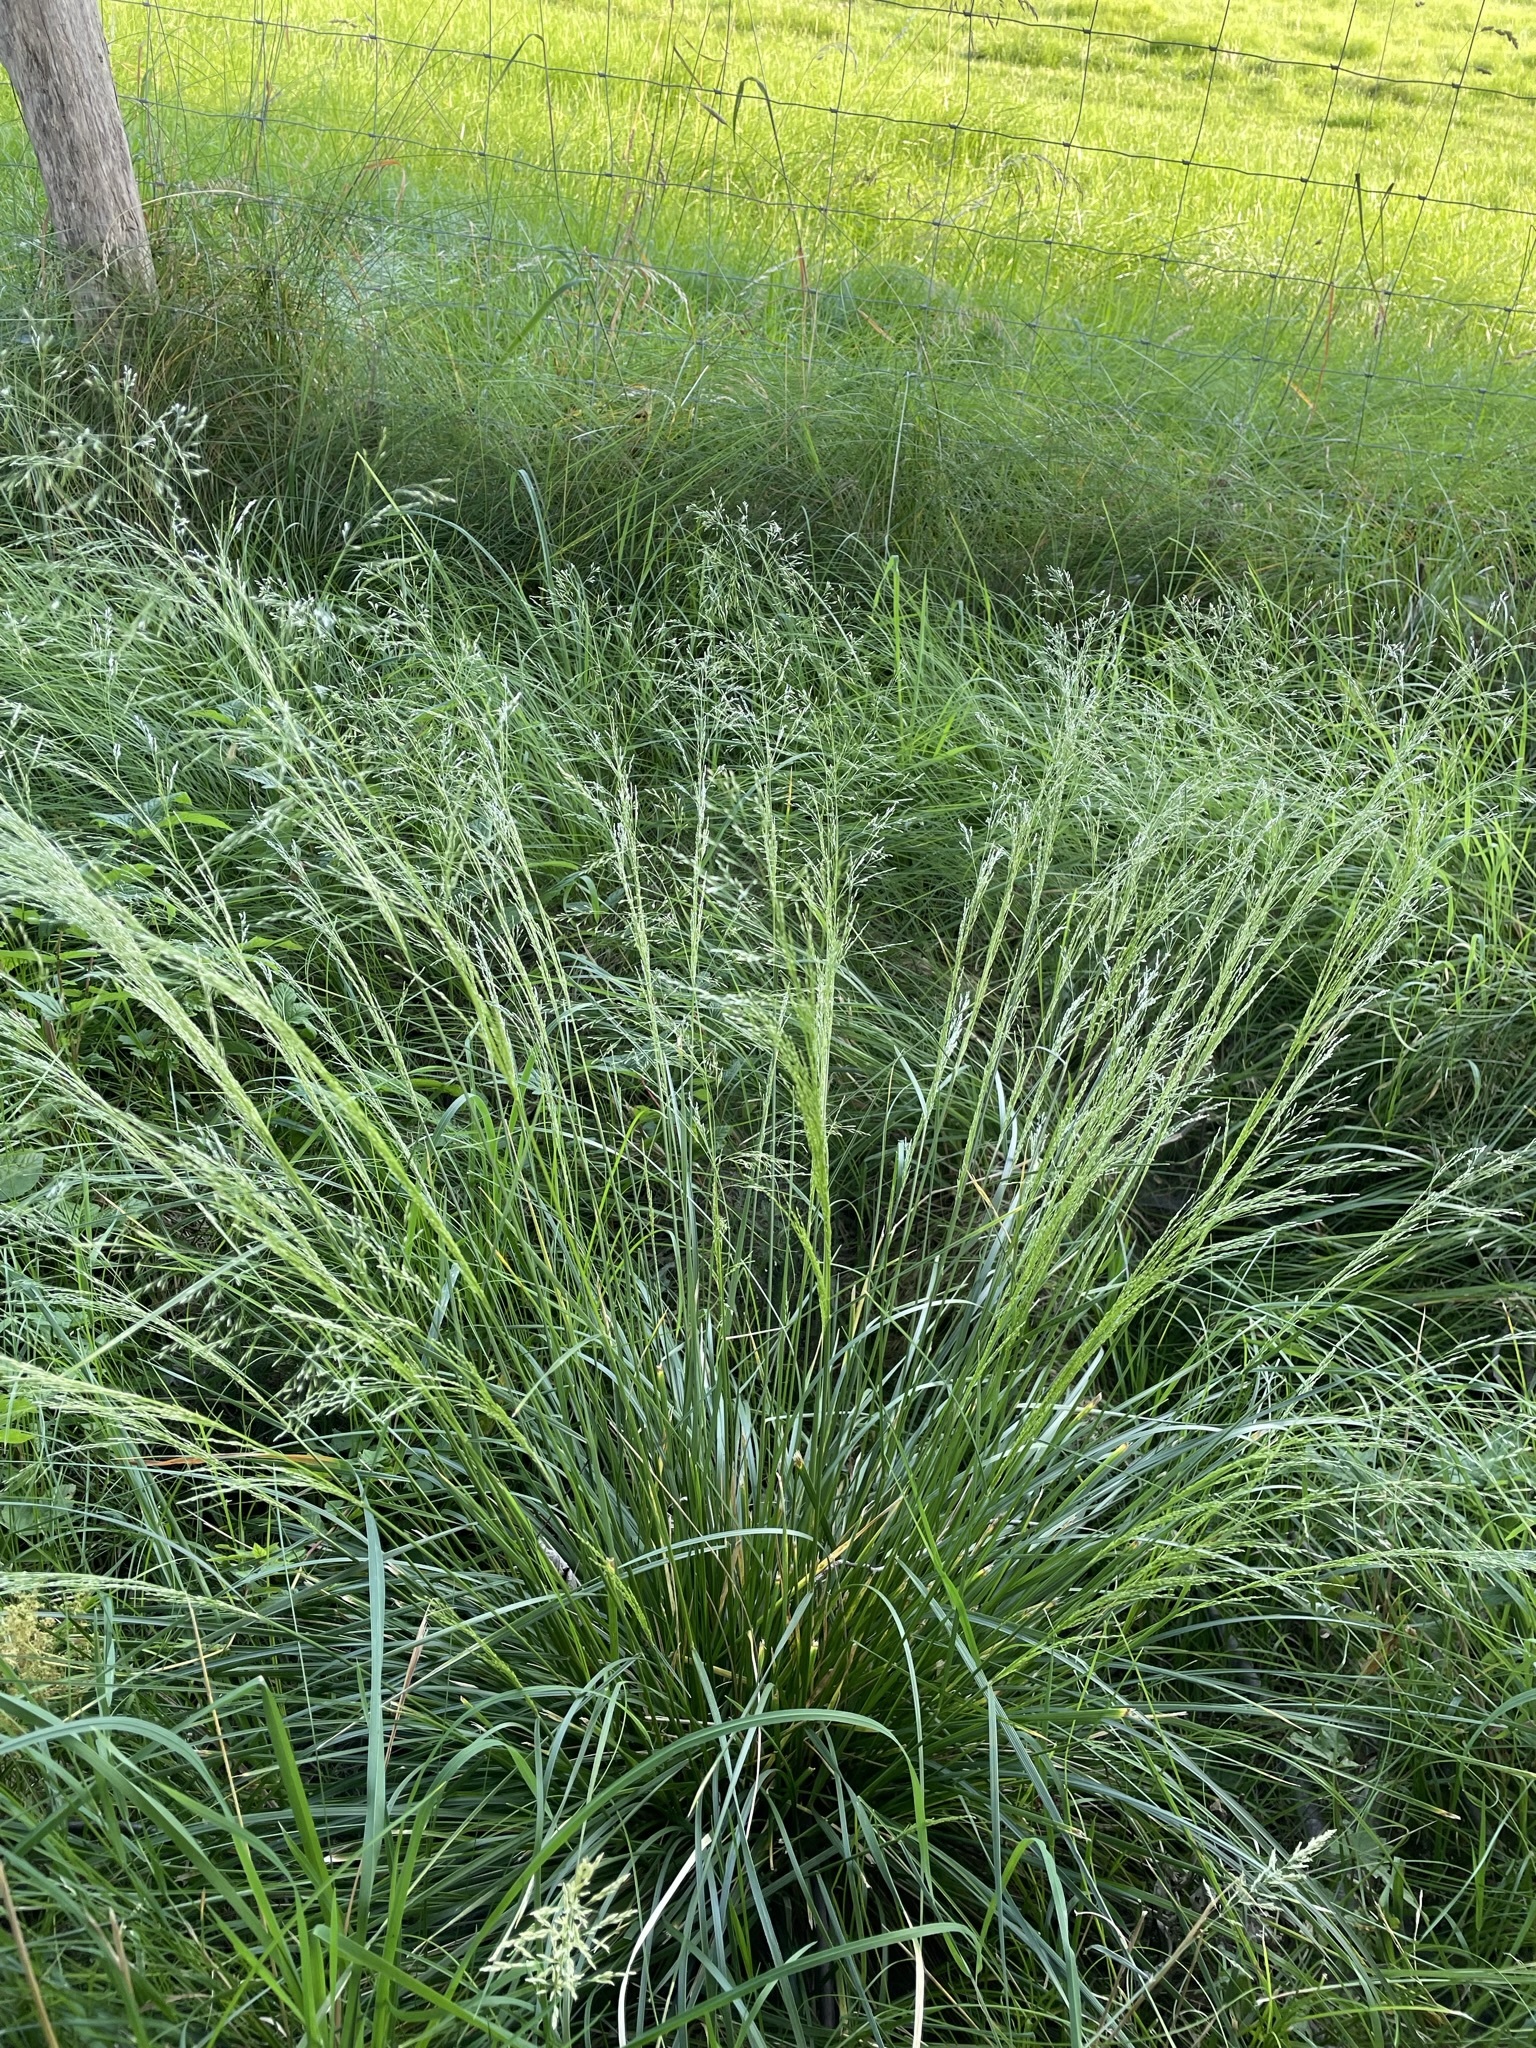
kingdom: Plantae
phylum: Tracheophyta
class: Liliopsida
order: Poales
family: Poaceae
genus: Deschampsia
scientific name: Deschampsia cespitosa
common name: Tufted hair-grass
